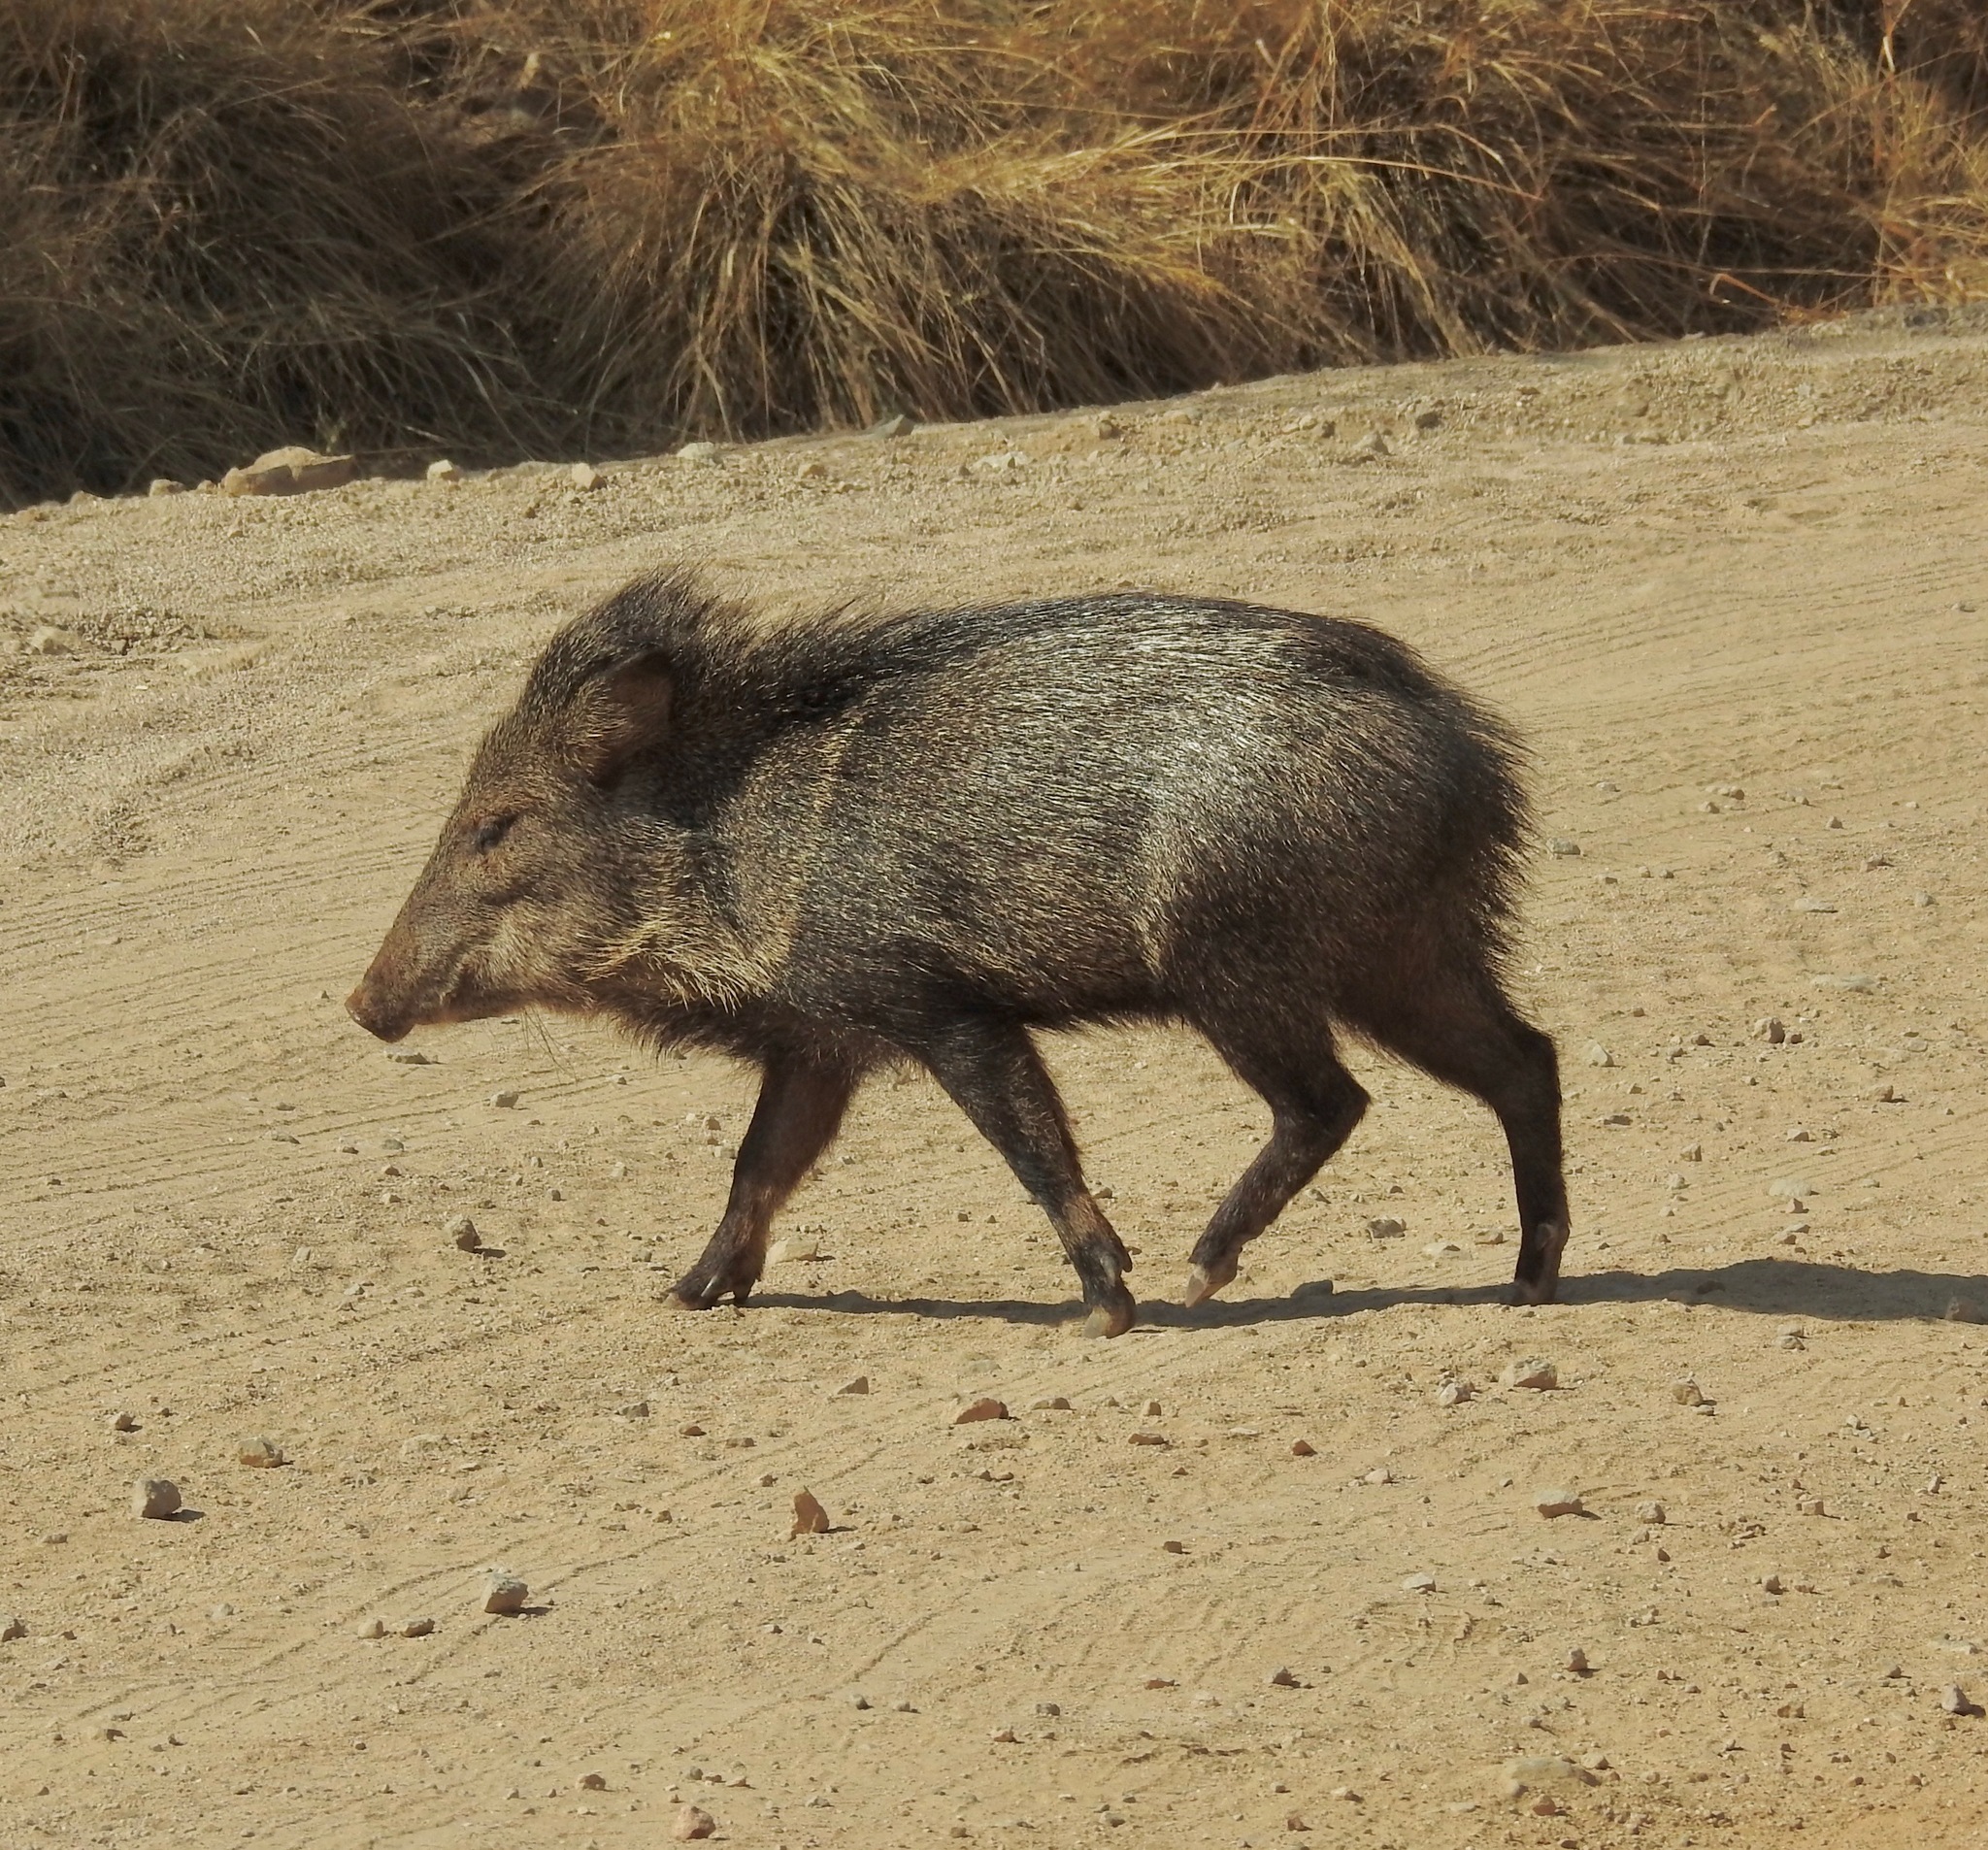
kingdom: Animalia
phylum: Chordata
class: Mammalia
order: Artiodactyla
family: Tayassuidae
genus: Pecari
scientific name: Pecari tajacu
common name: Collared peccary
